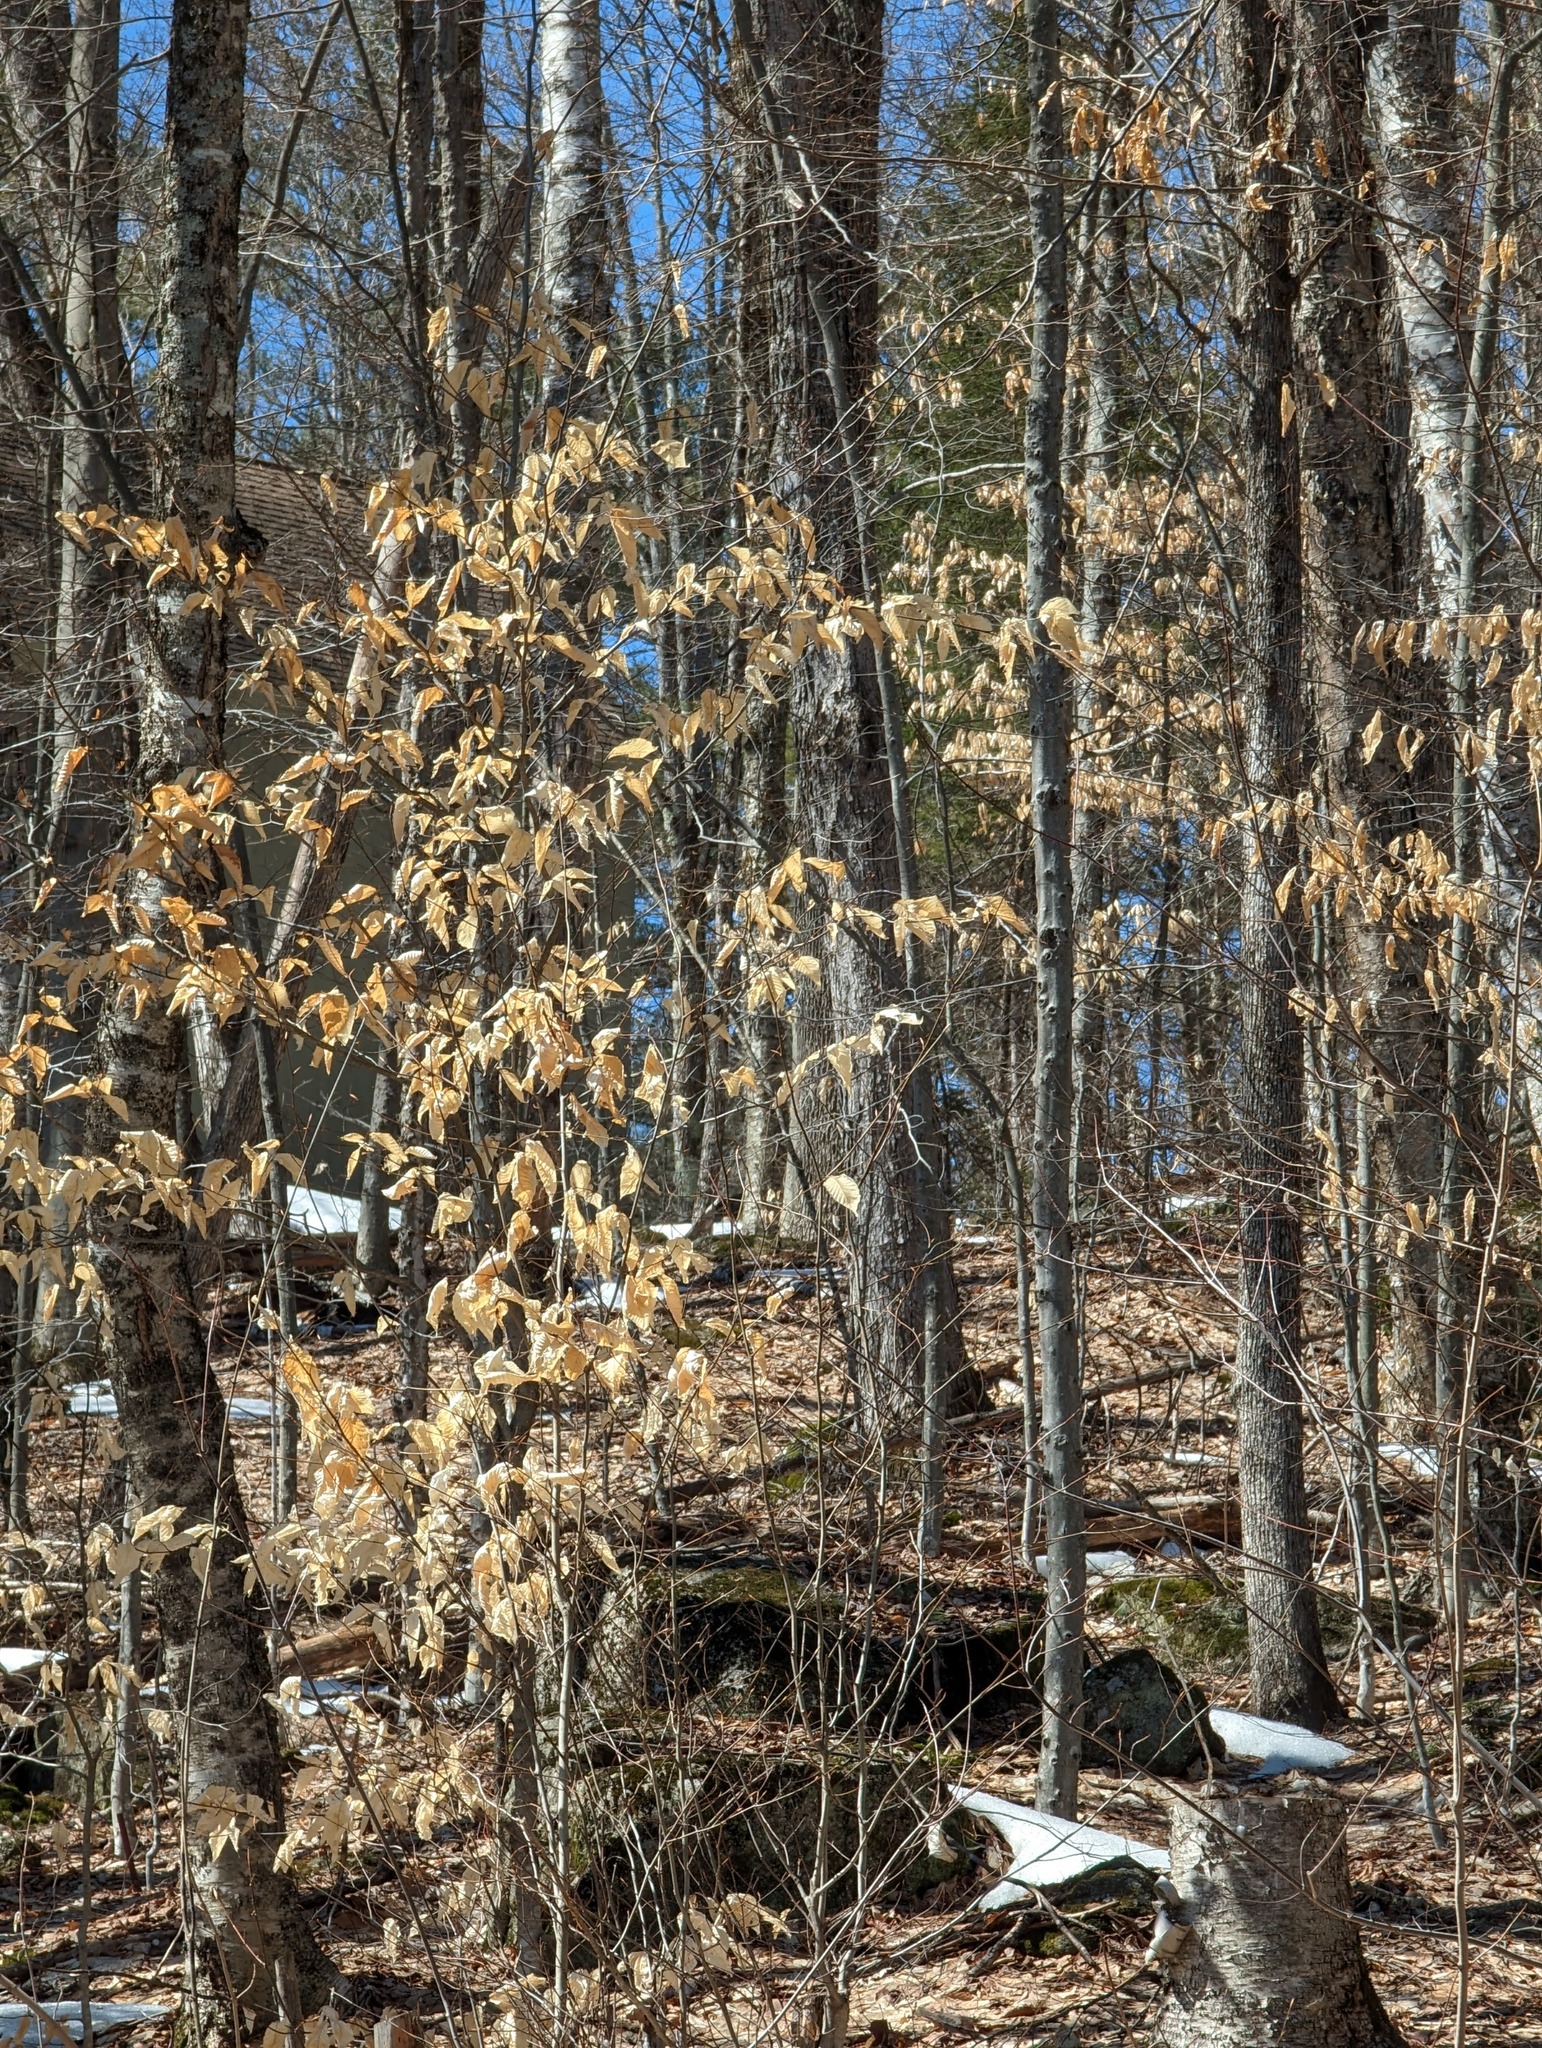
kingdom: Plantae
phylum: Tracheophyta
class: Magnoliopsida
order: Fagales
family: Fagaceae
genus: Fagus
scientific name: Fagus grandifolia
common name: American beech
